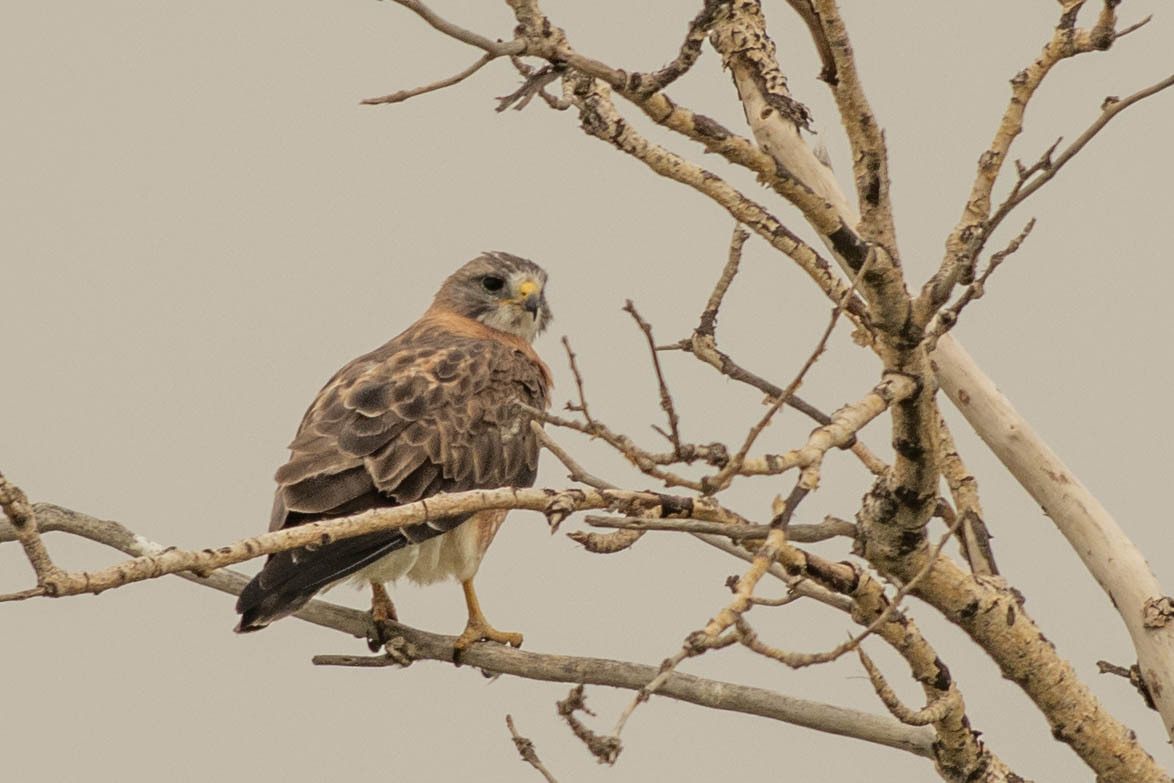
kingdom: Animalia
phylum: Chordata
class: Aves
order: Accipitriformes
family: Accipitridae
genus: Buteo
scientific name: Buteo swainsoni
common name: Swainson's hawk
